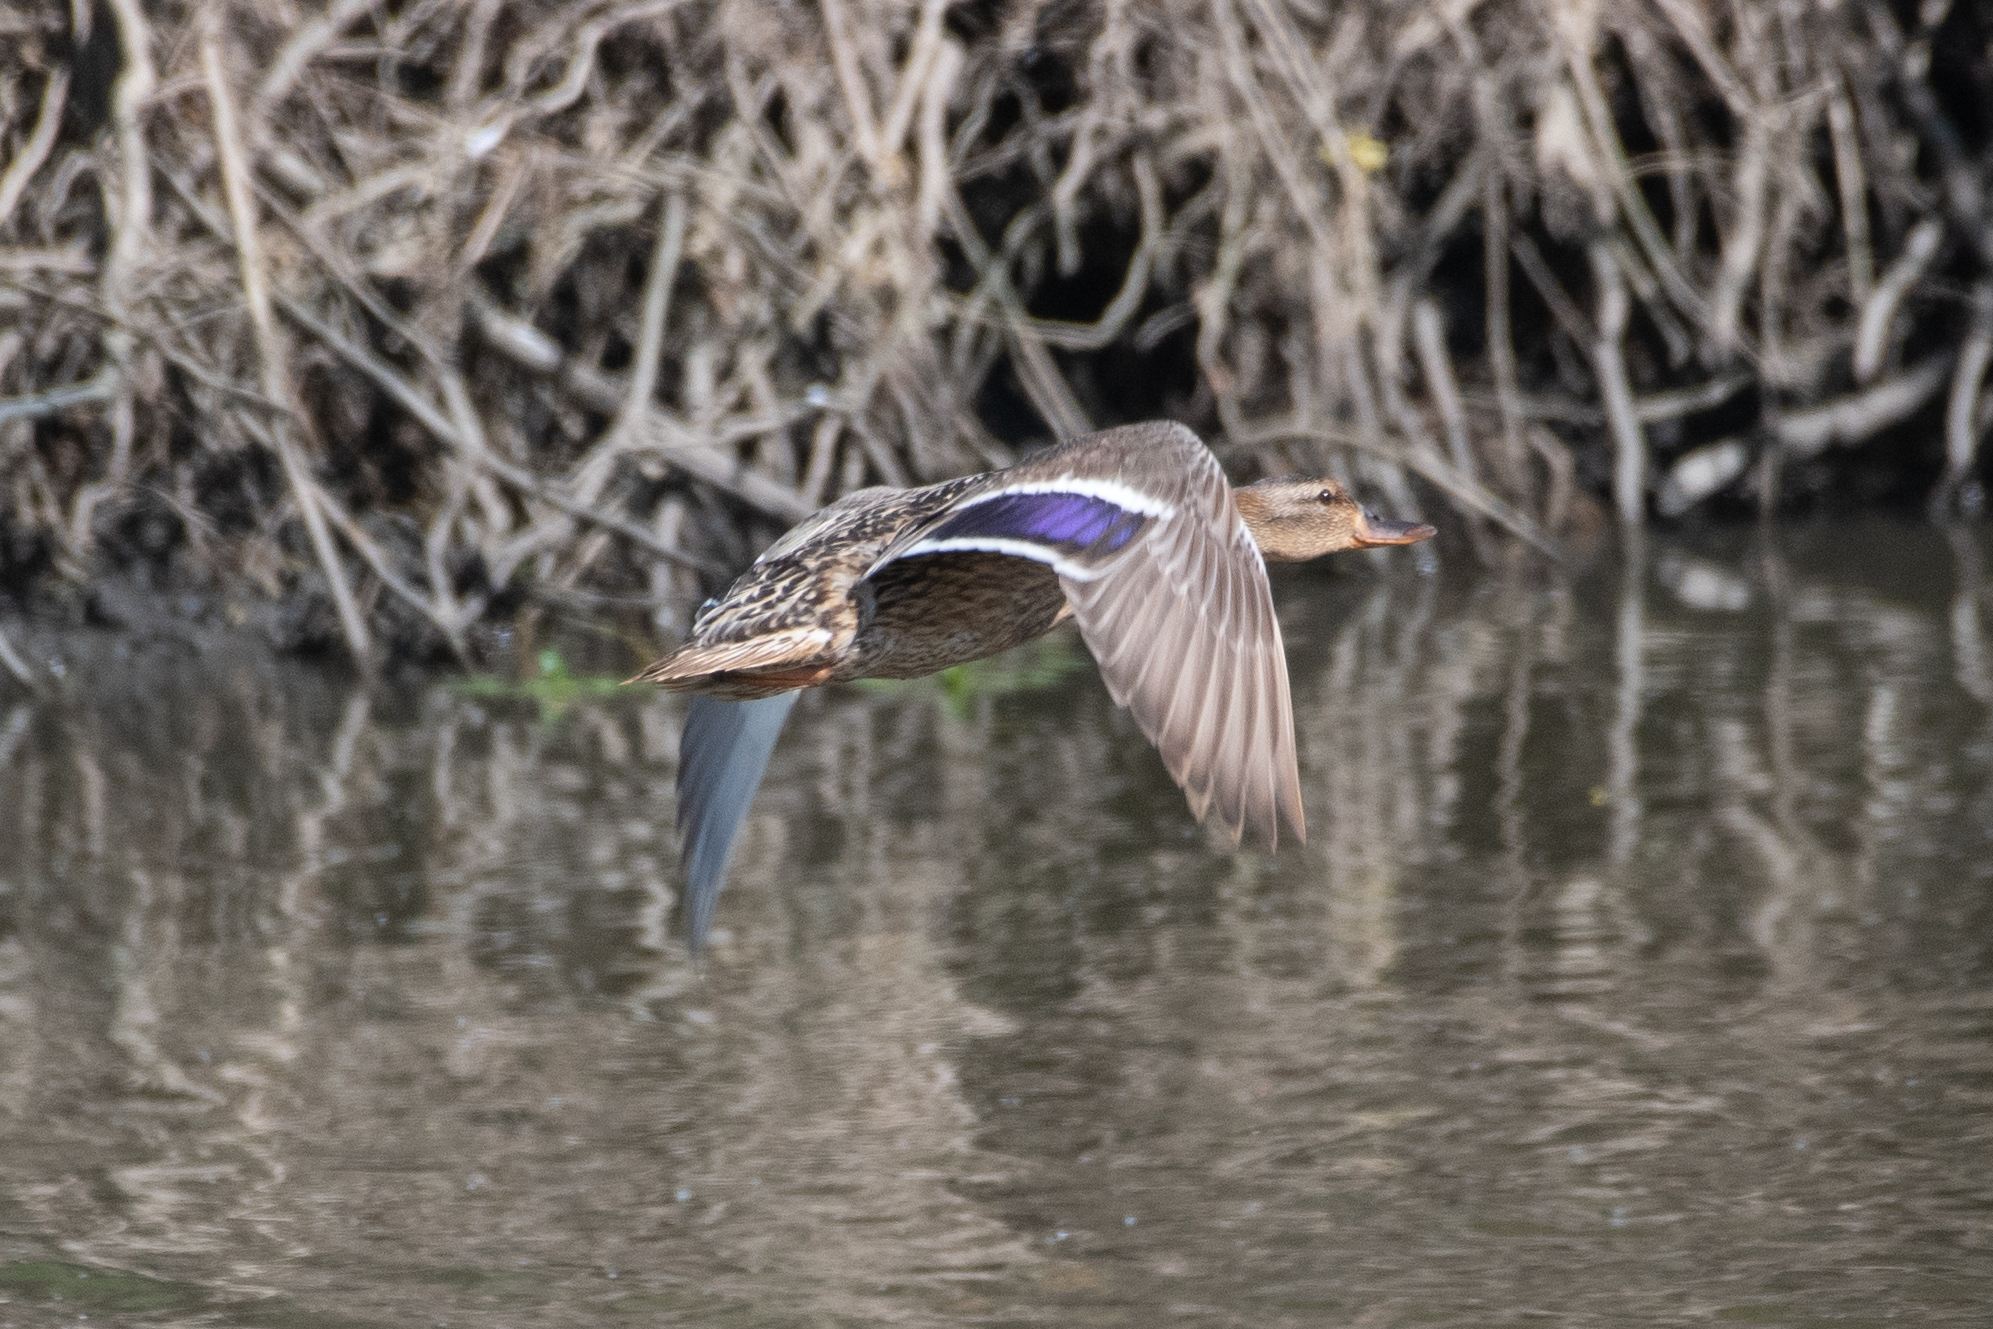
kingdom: Animalia
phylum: Chordata
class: Aves
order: Anseriformes
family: Anatidae
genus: Anas
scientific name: Anas platyrhynchos
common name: Mallard
